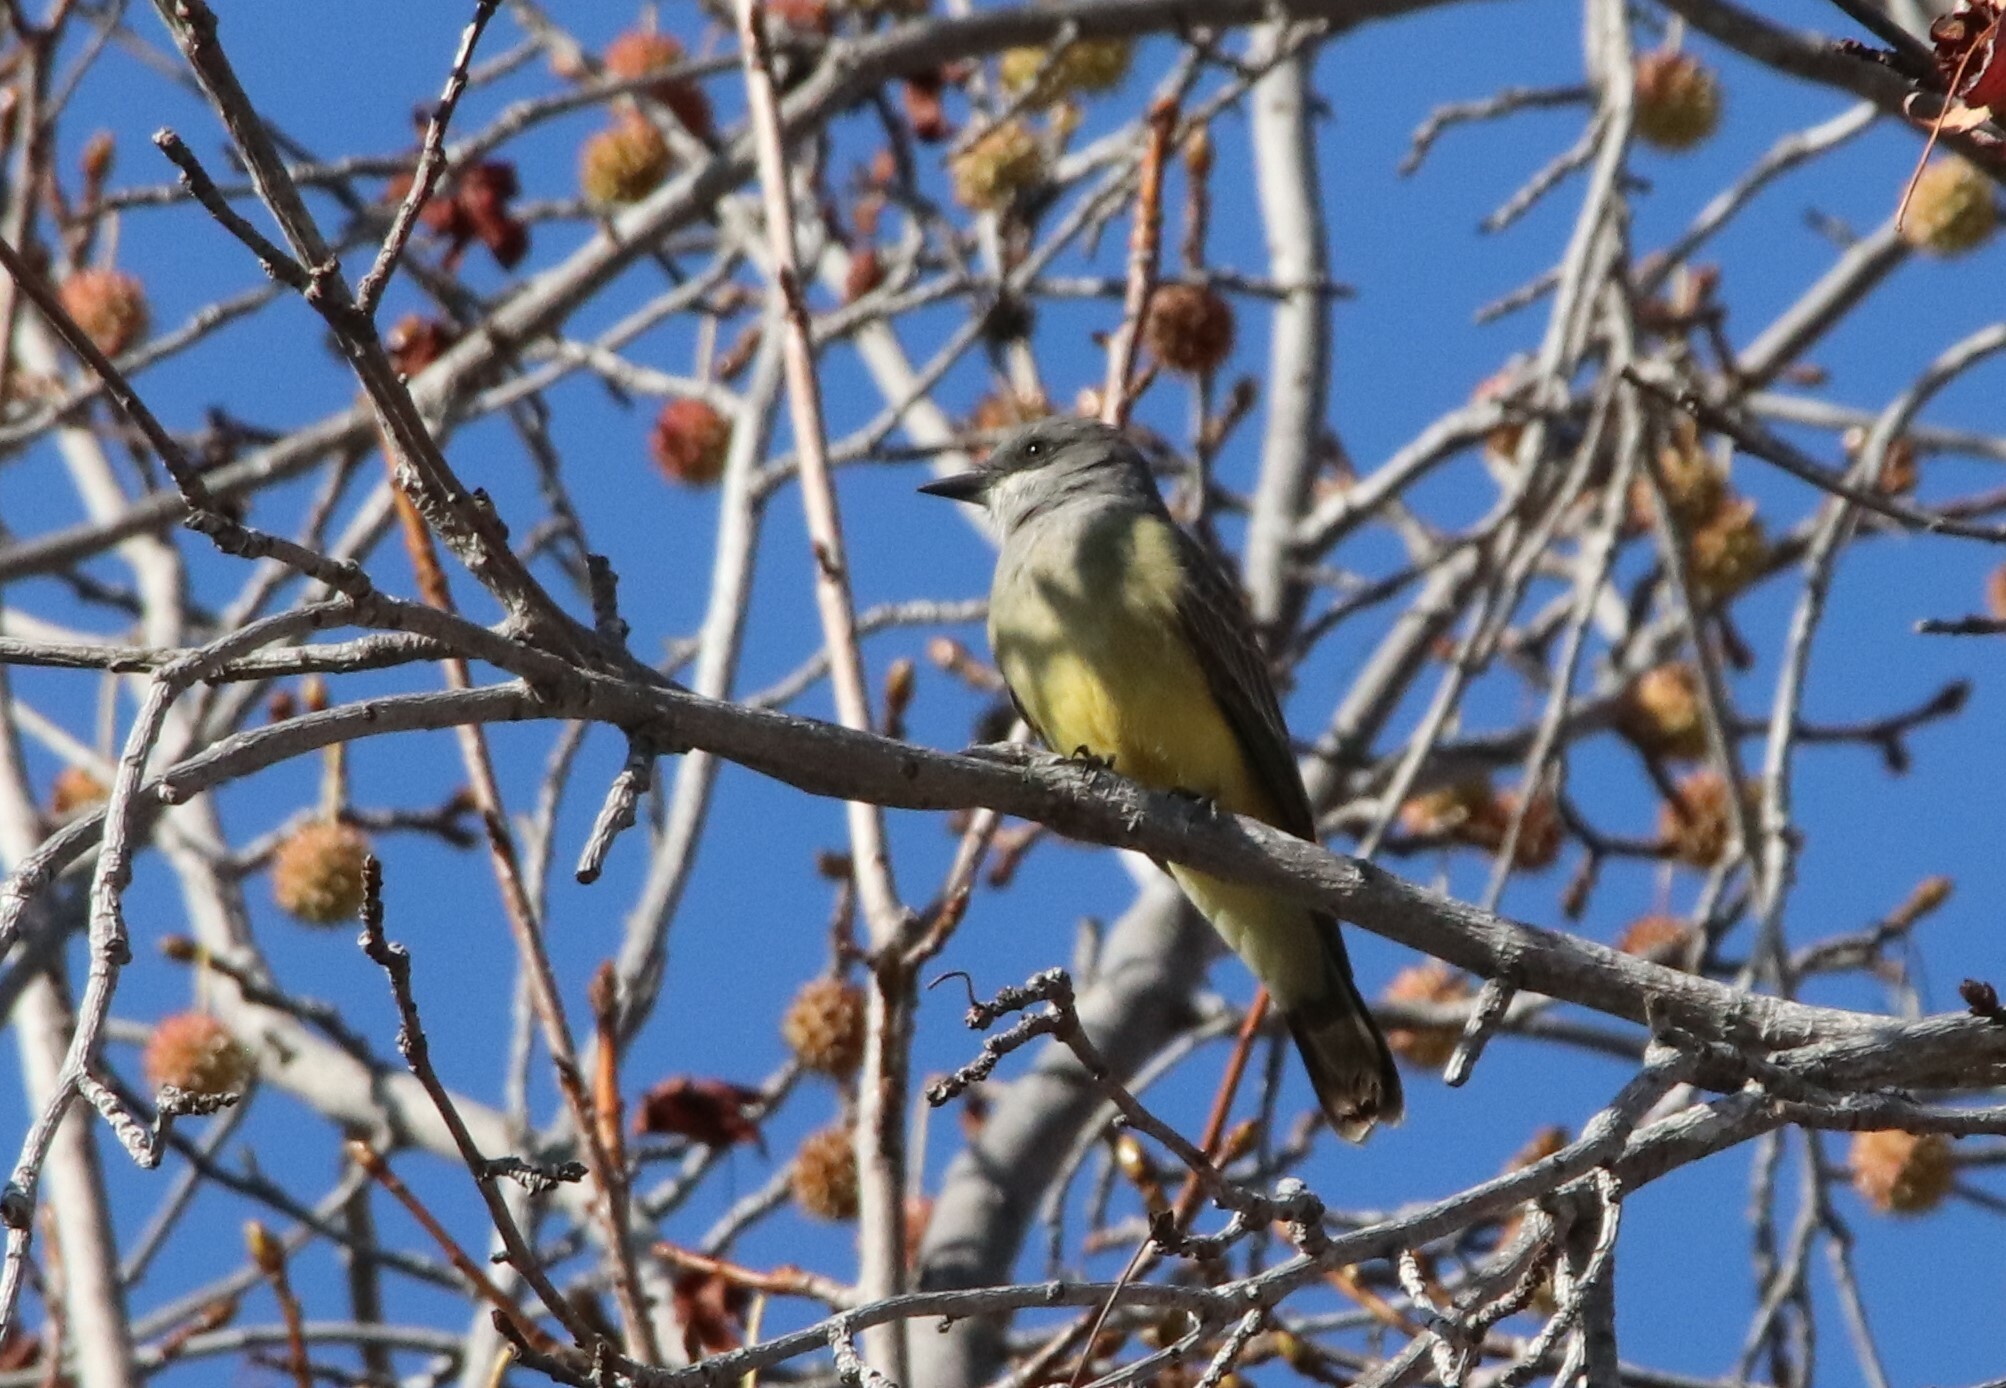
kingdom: Animalia
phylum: Chordata
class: Aves
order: Passeriformes
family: Tyrannidae
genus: Tyrannus
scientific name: Tyrannus vociferans
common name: Cassin's kingbird
